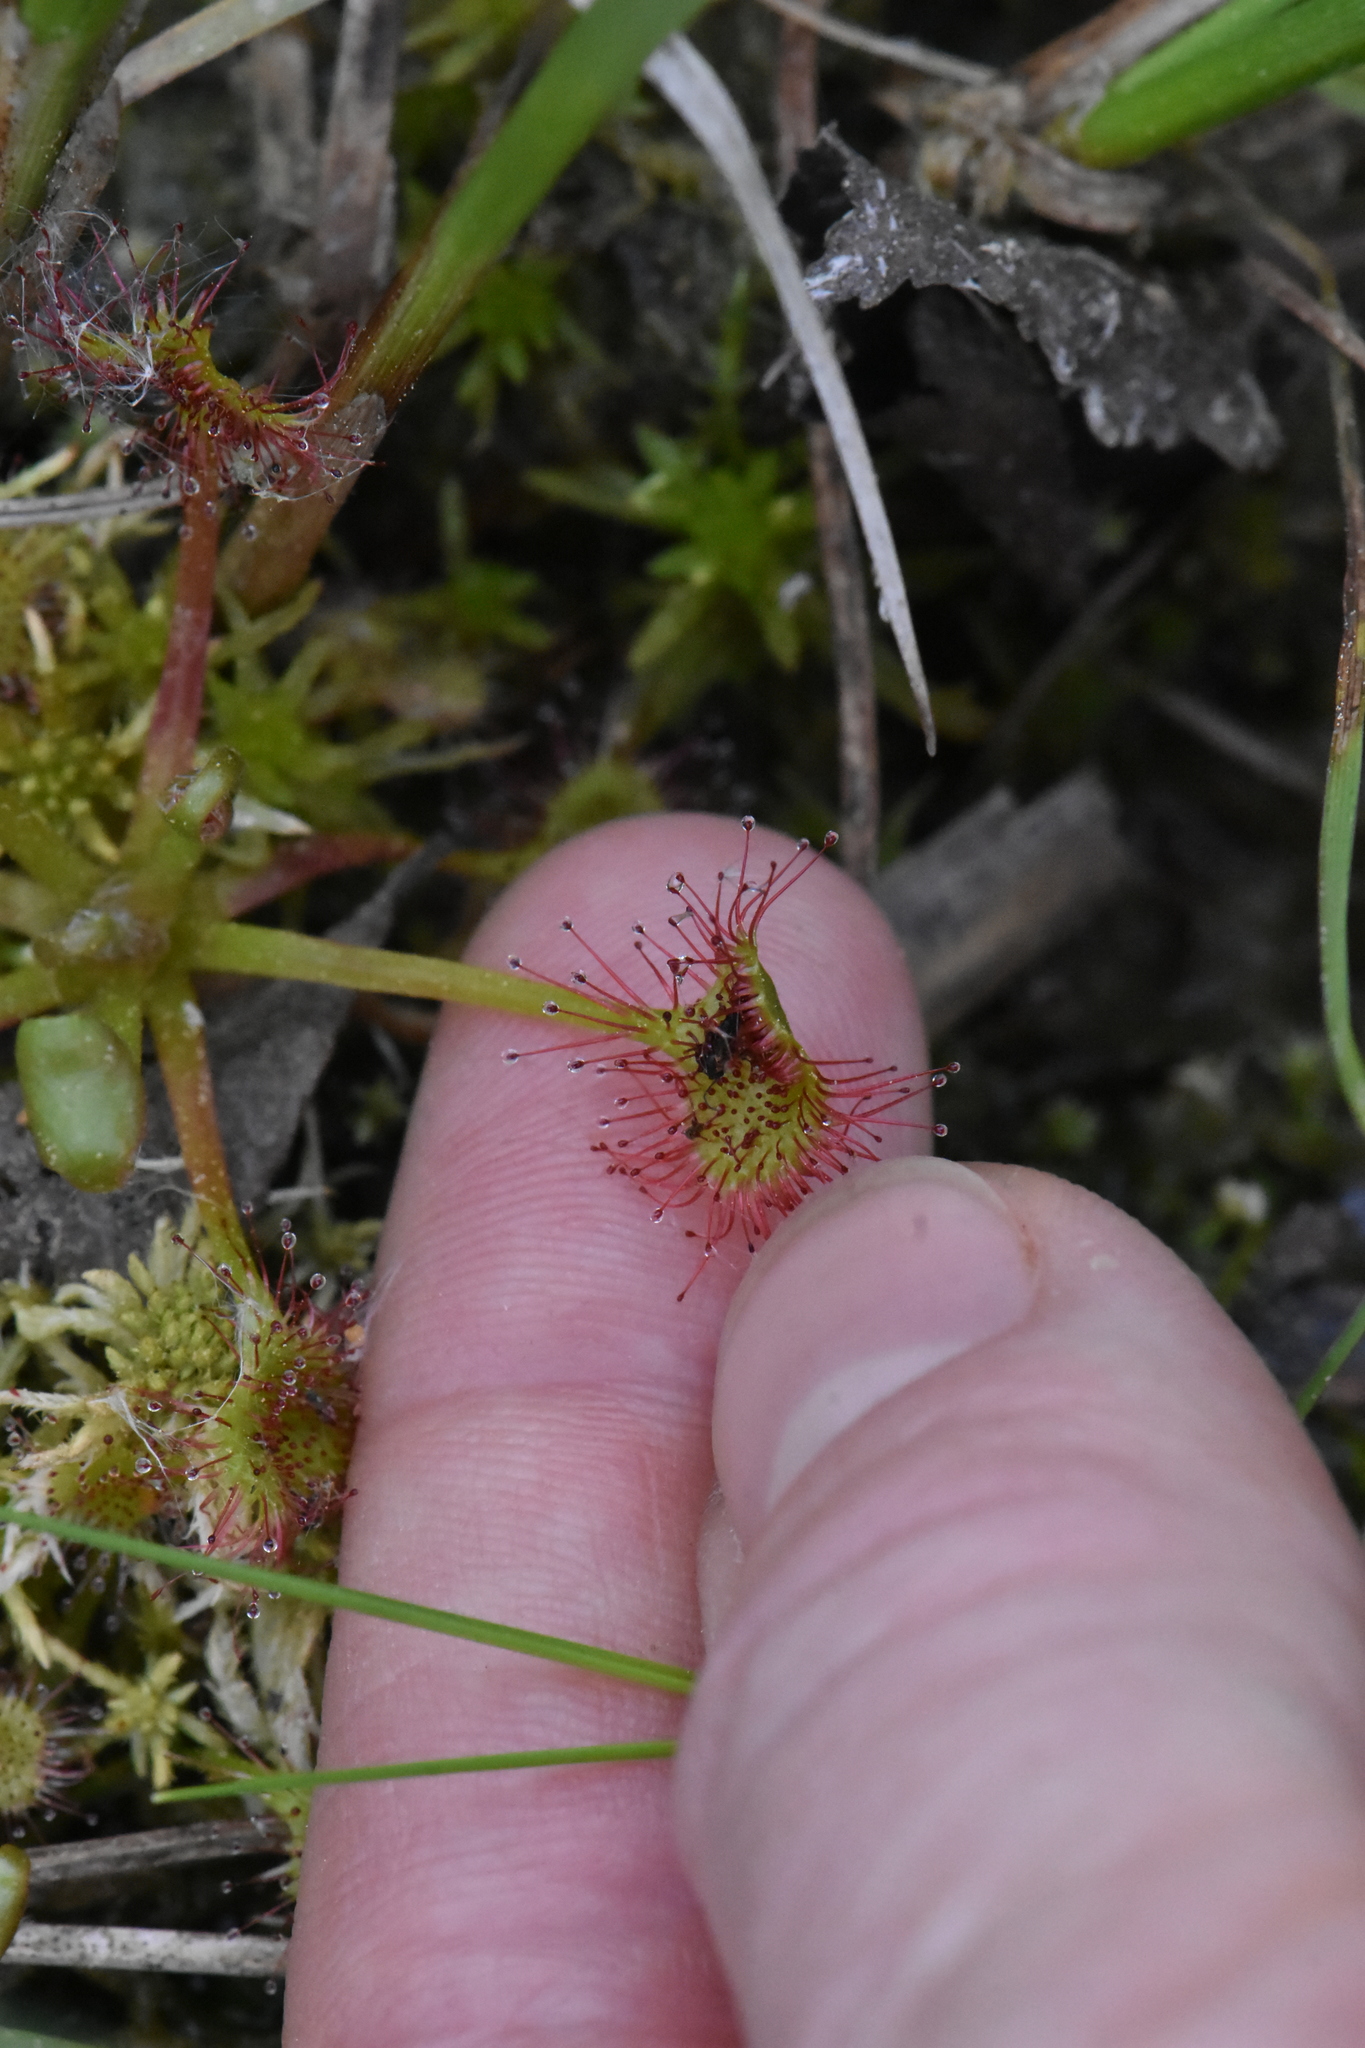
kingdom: Plantae
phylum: Tracheophyta
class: Magnoliopsida
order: Caryophyllales
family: Droseraceae
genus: Drosera
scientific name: Drosera rotundifolia
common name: Round-leaved sundew
